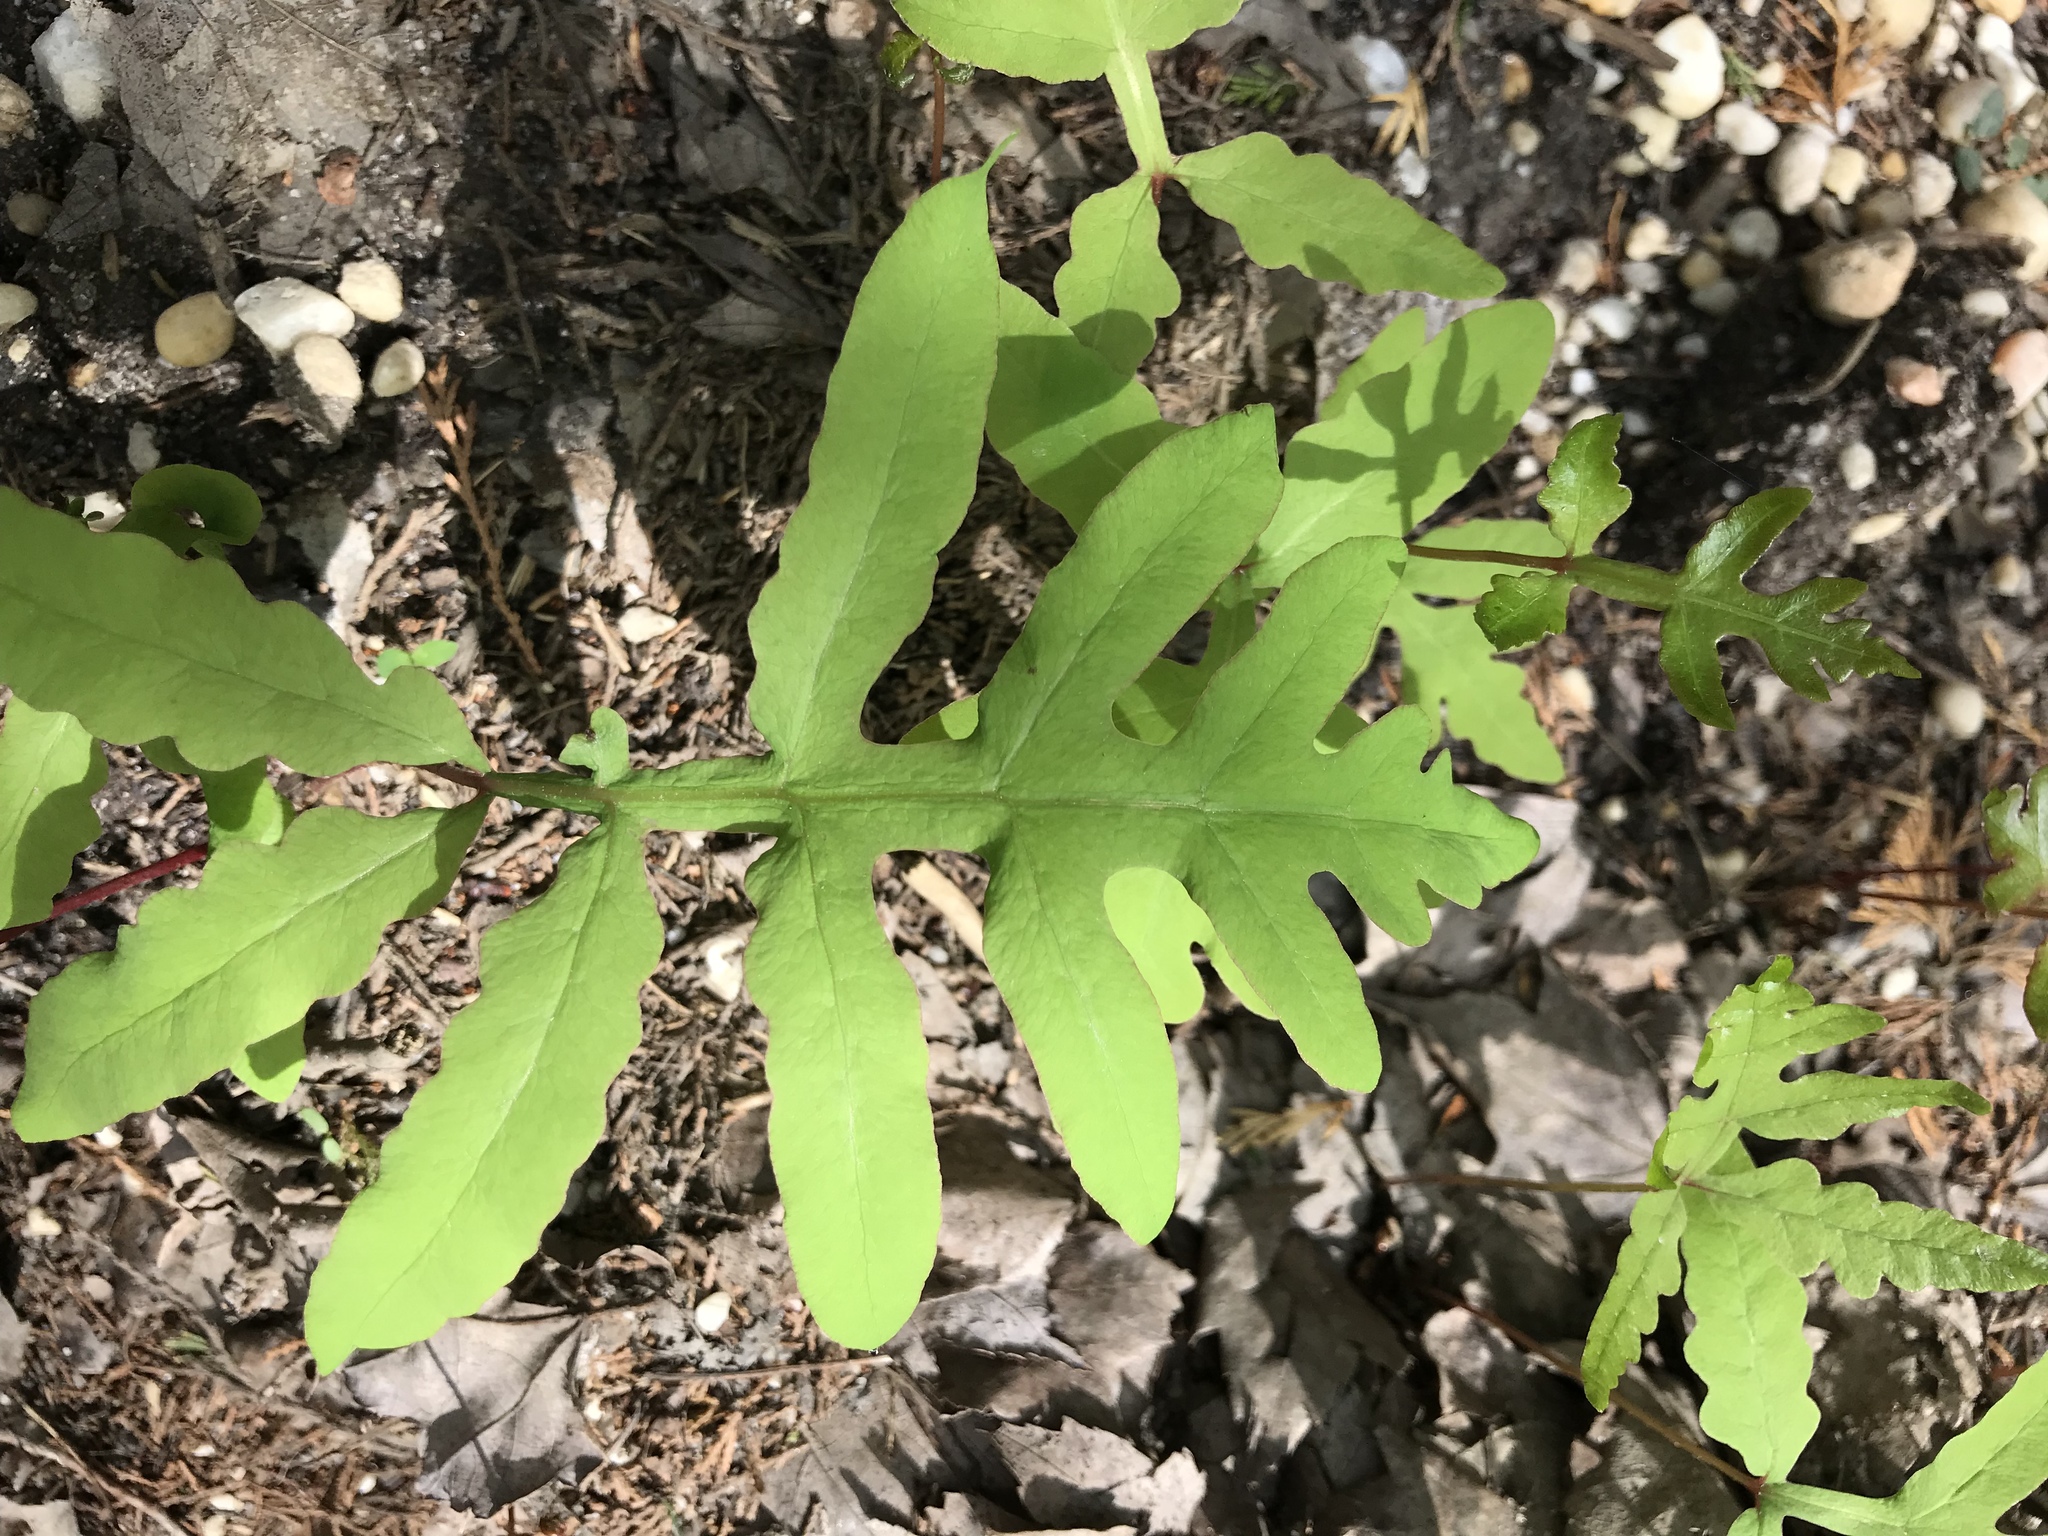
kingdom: Plantae
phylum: Tracheophyta
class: Polypodiopsida
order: Polypodiales
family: Onocleaceae
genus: Onoclea
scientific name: Onoclea sensibilis
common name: Sensitive fern
